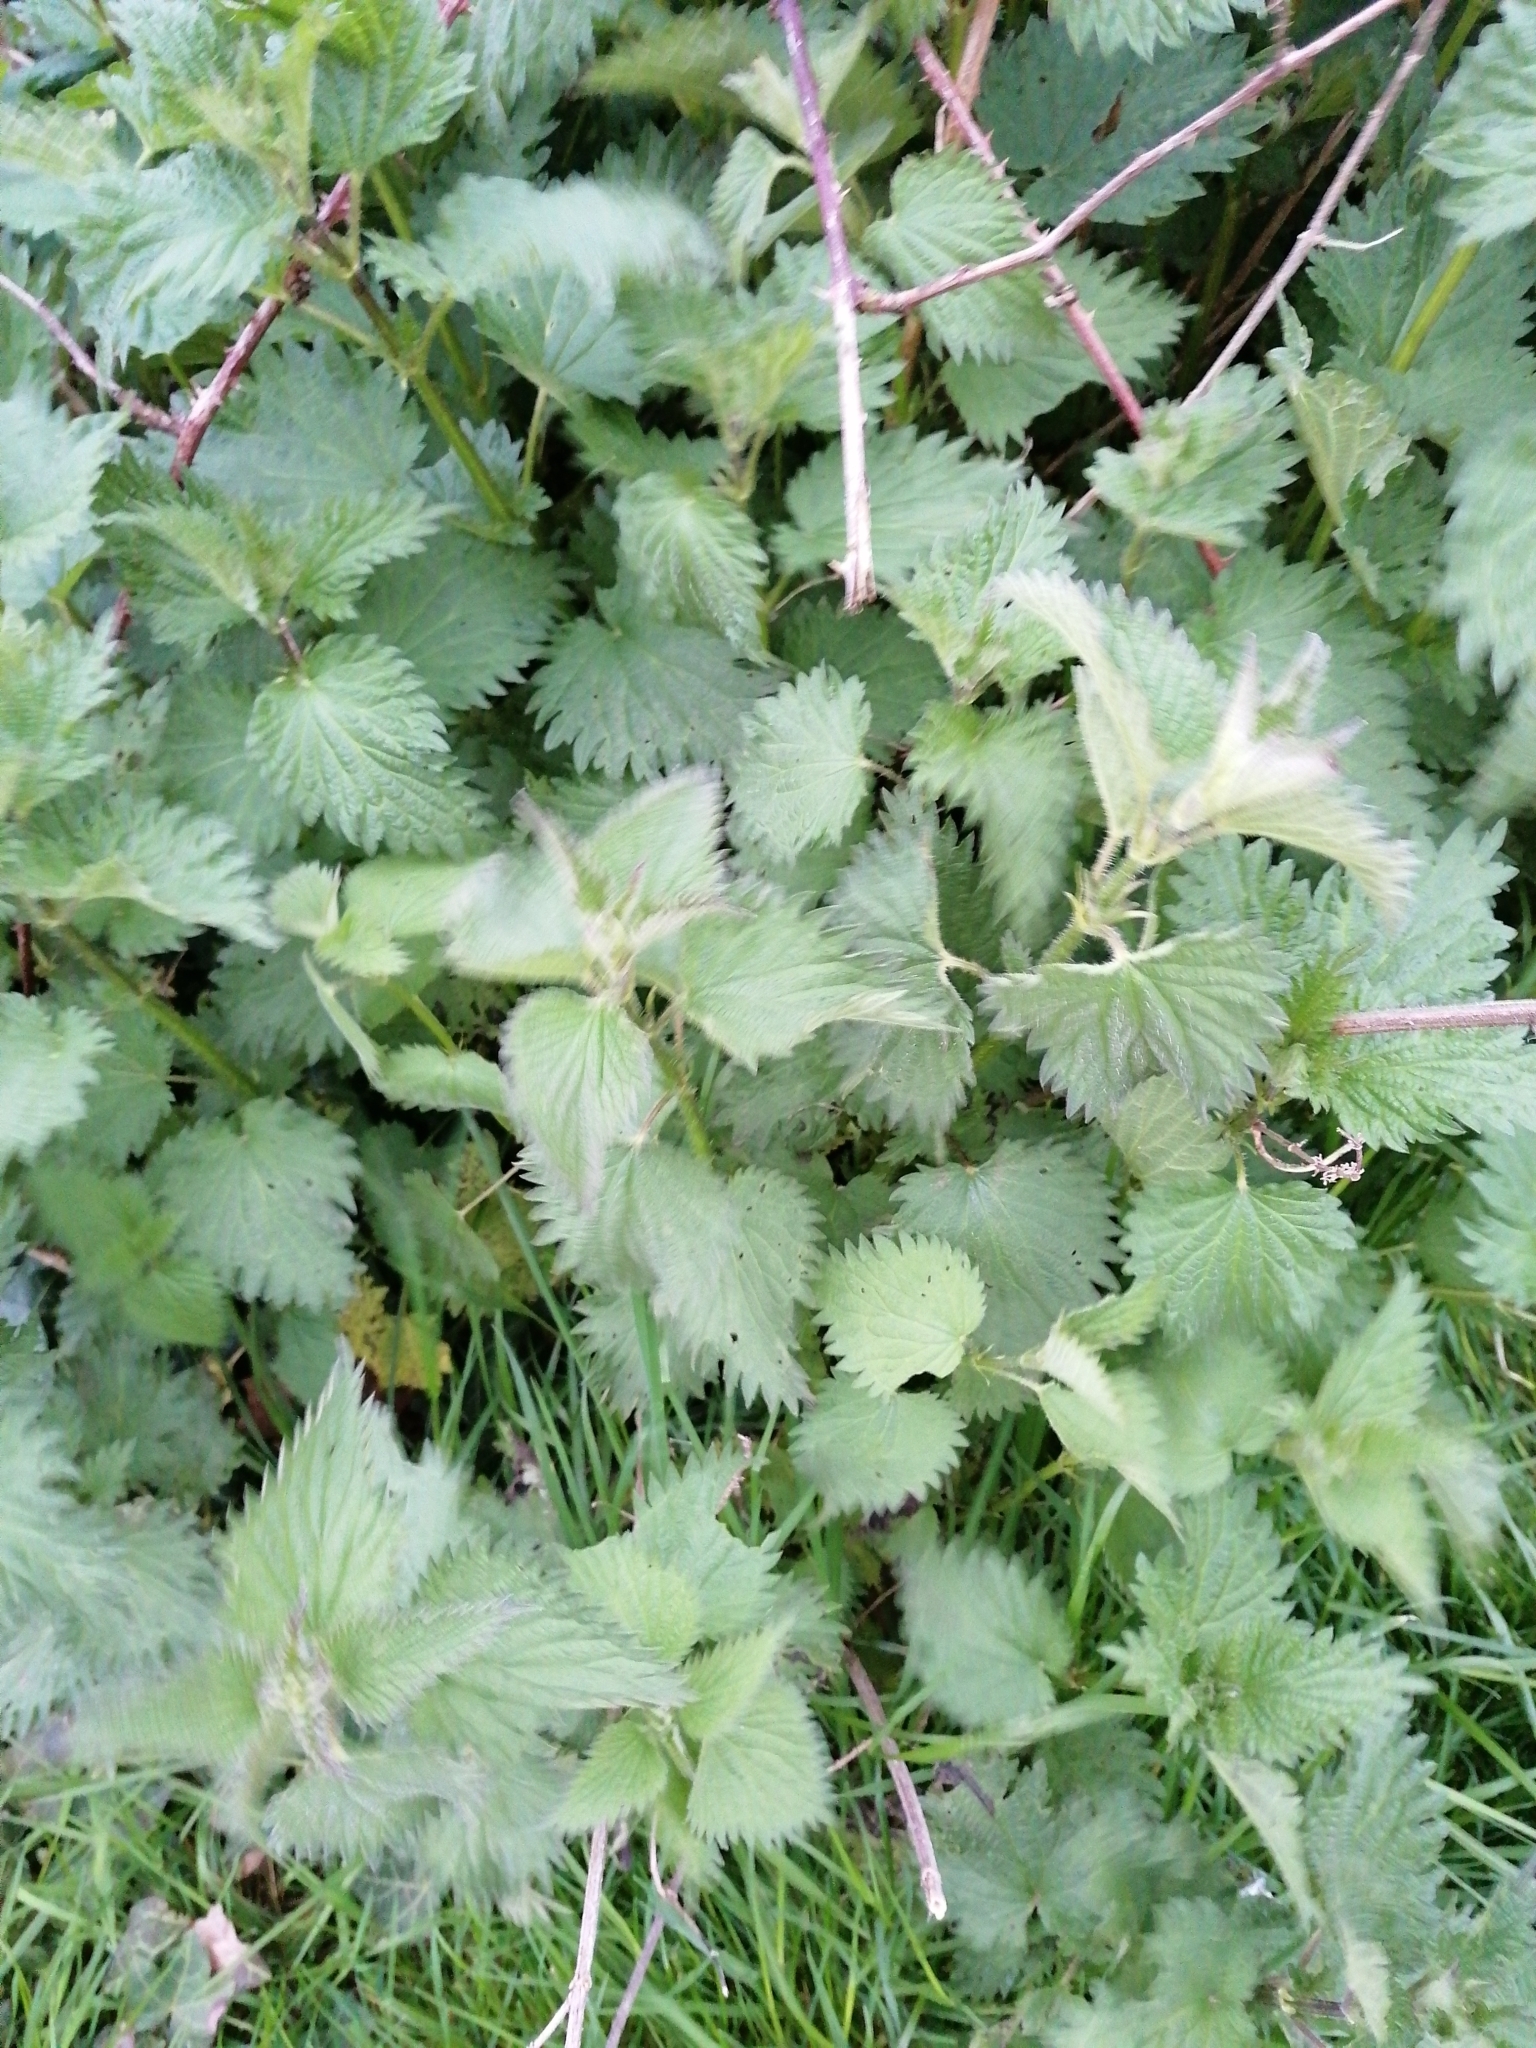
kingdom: Plantae
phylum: Tracheophyta
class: Magnoliopsida
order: Rosales
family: Urticaceae
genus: Urtica
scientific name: Urtica dioica
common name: Common nettle
